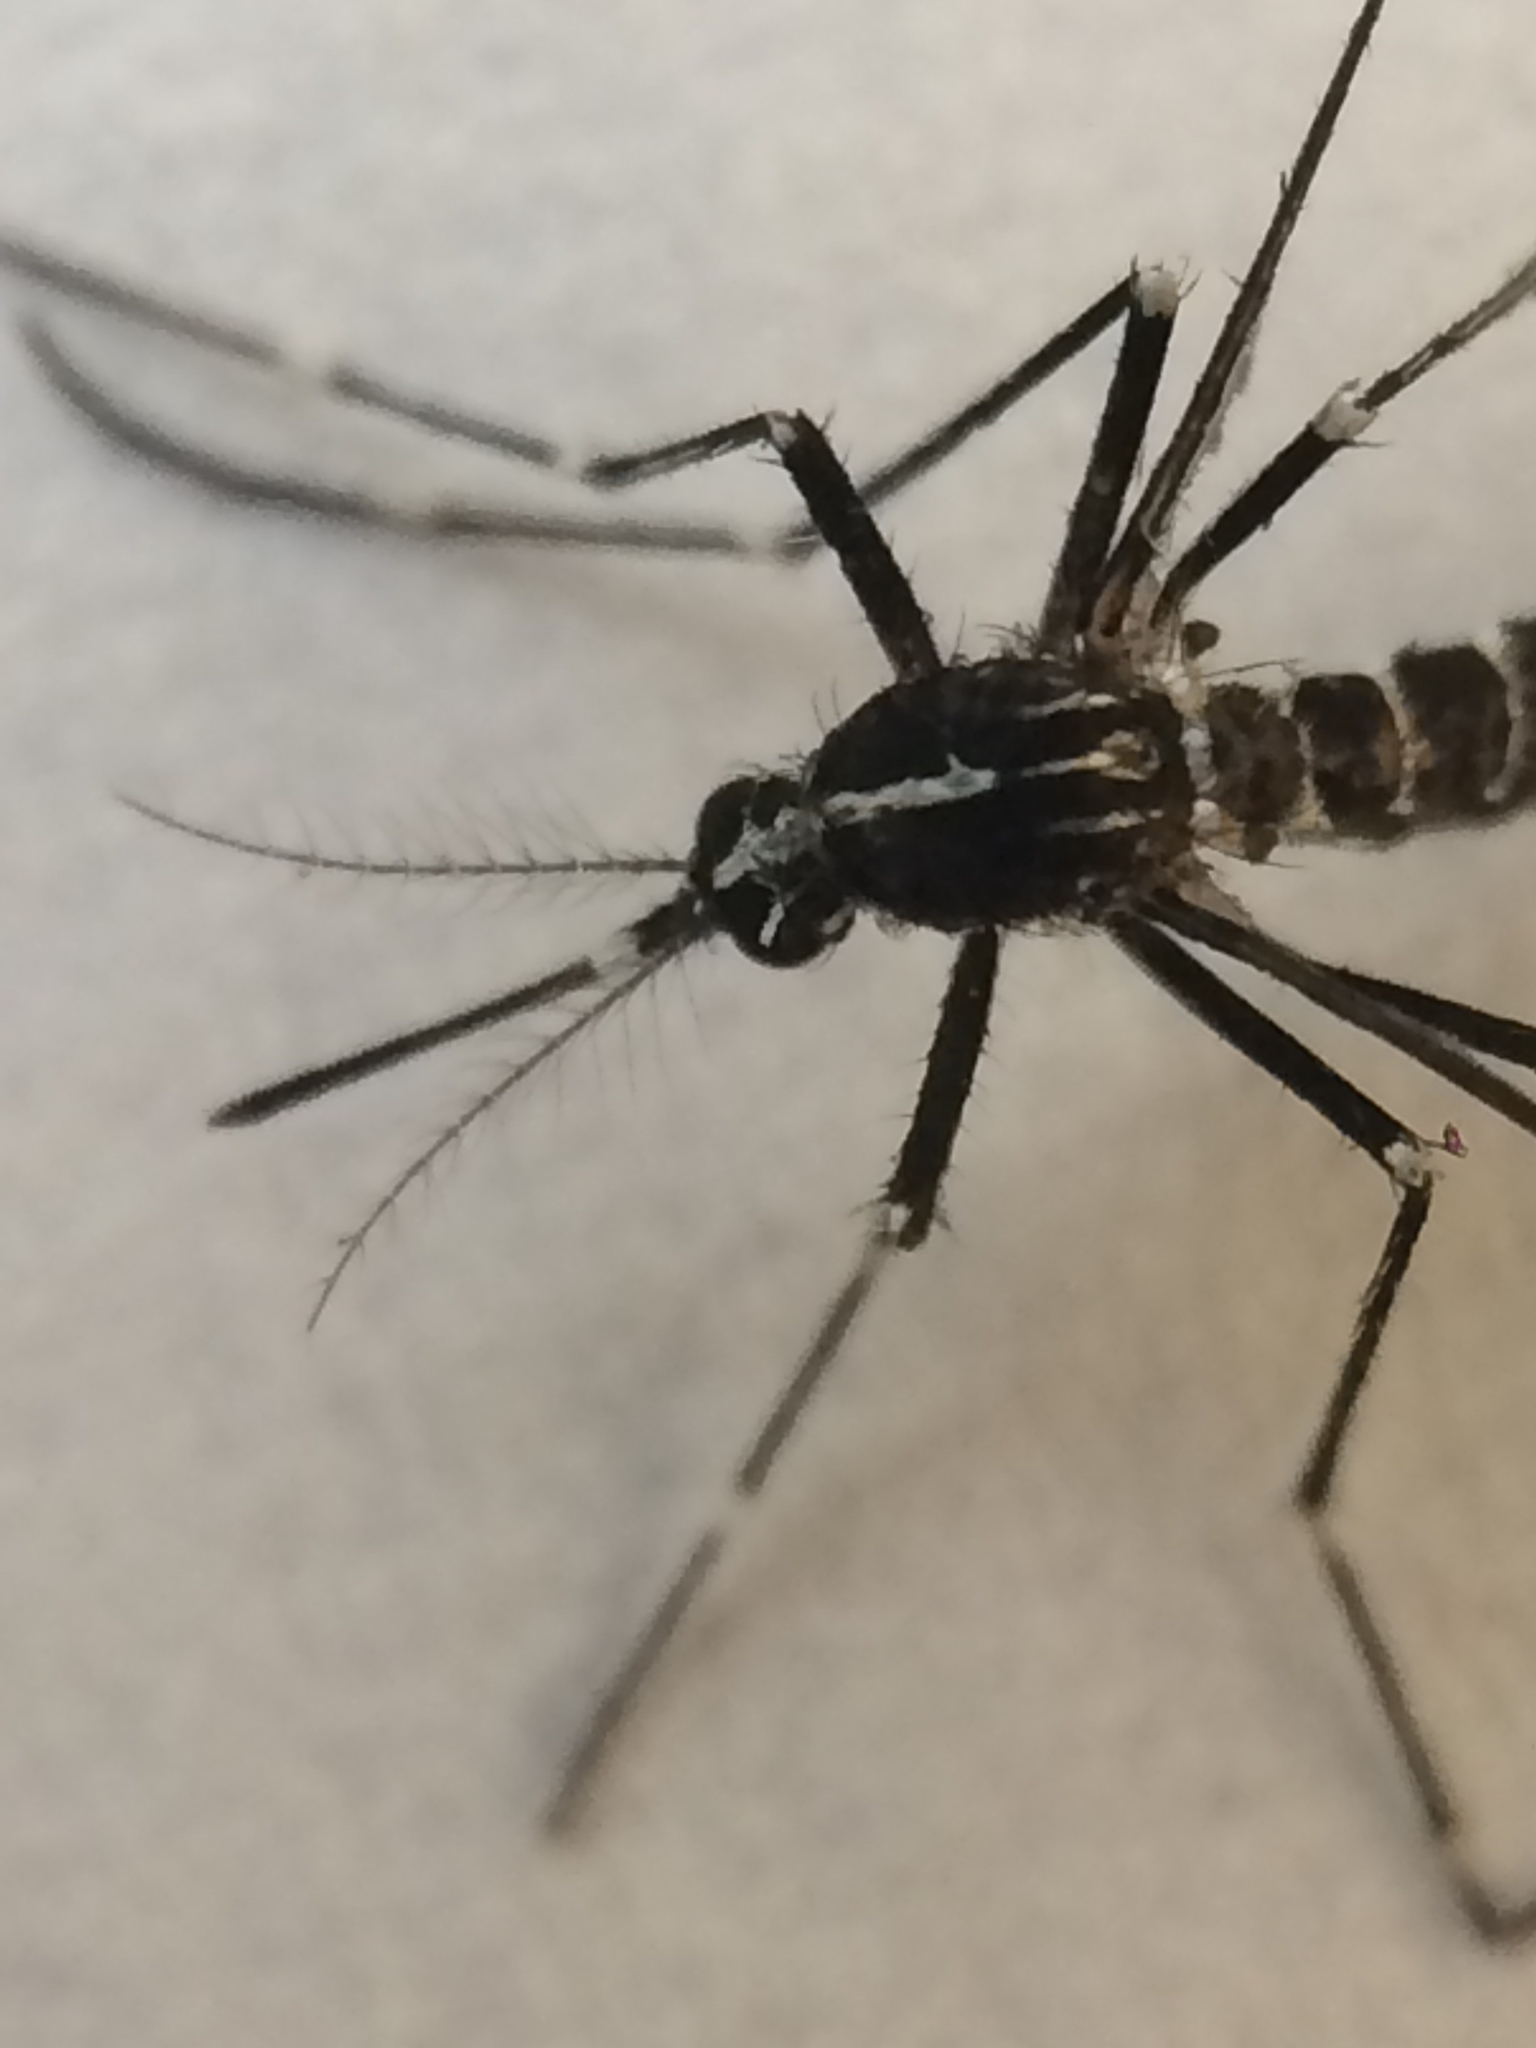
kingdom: Animalia
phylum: Arthropoda
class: Insecta
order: Diptera
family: Culicidae
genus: Aedes
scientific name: Aedes albopictus
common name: Tiger mosquito
